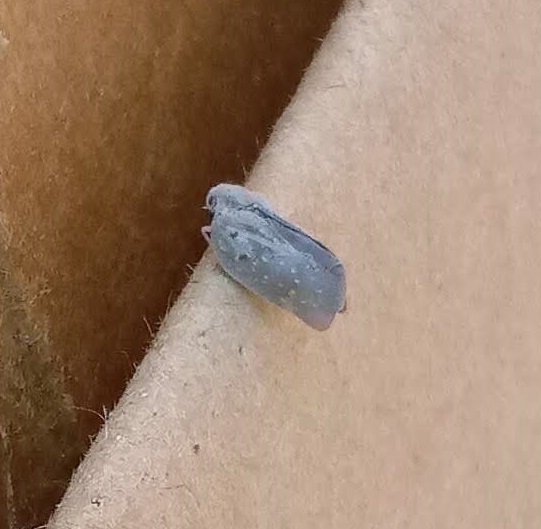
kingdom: Animalia
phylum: Arthropoda
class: Insecta
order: Hemiptera
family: Flatidae
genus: Metcalfa
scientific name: Metcalfa pruinosa
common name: Citrus flatid planthopper
